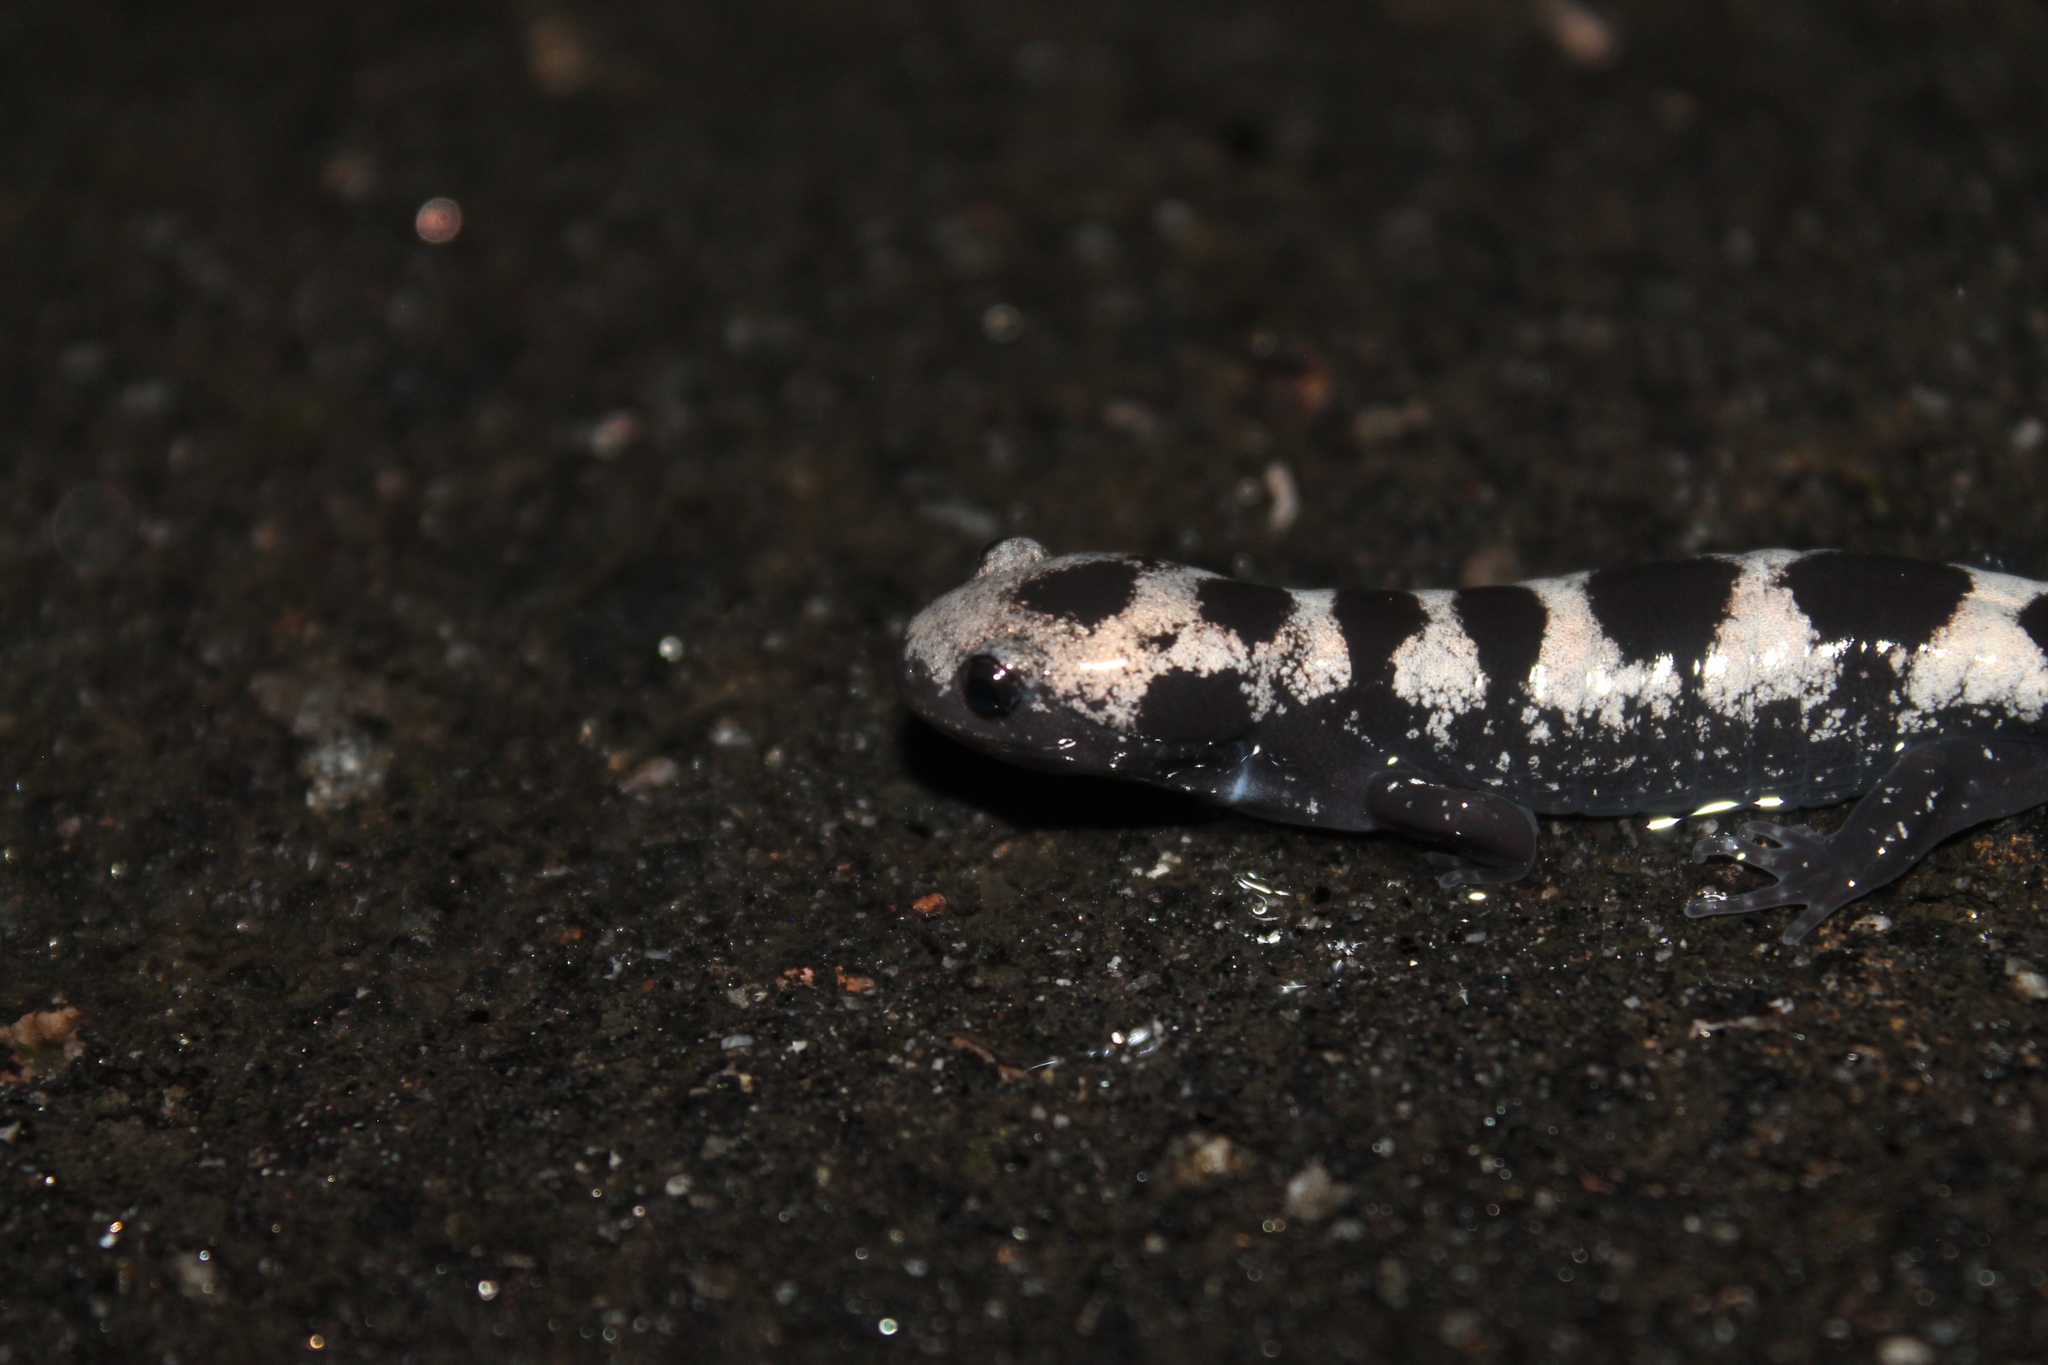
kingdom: Animalia
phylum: Chordata
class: Amphibia
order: Caudata
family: Ambystomatidae
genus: Ambystoma
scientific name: Ambystoma opacum
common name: Marbled salamander
